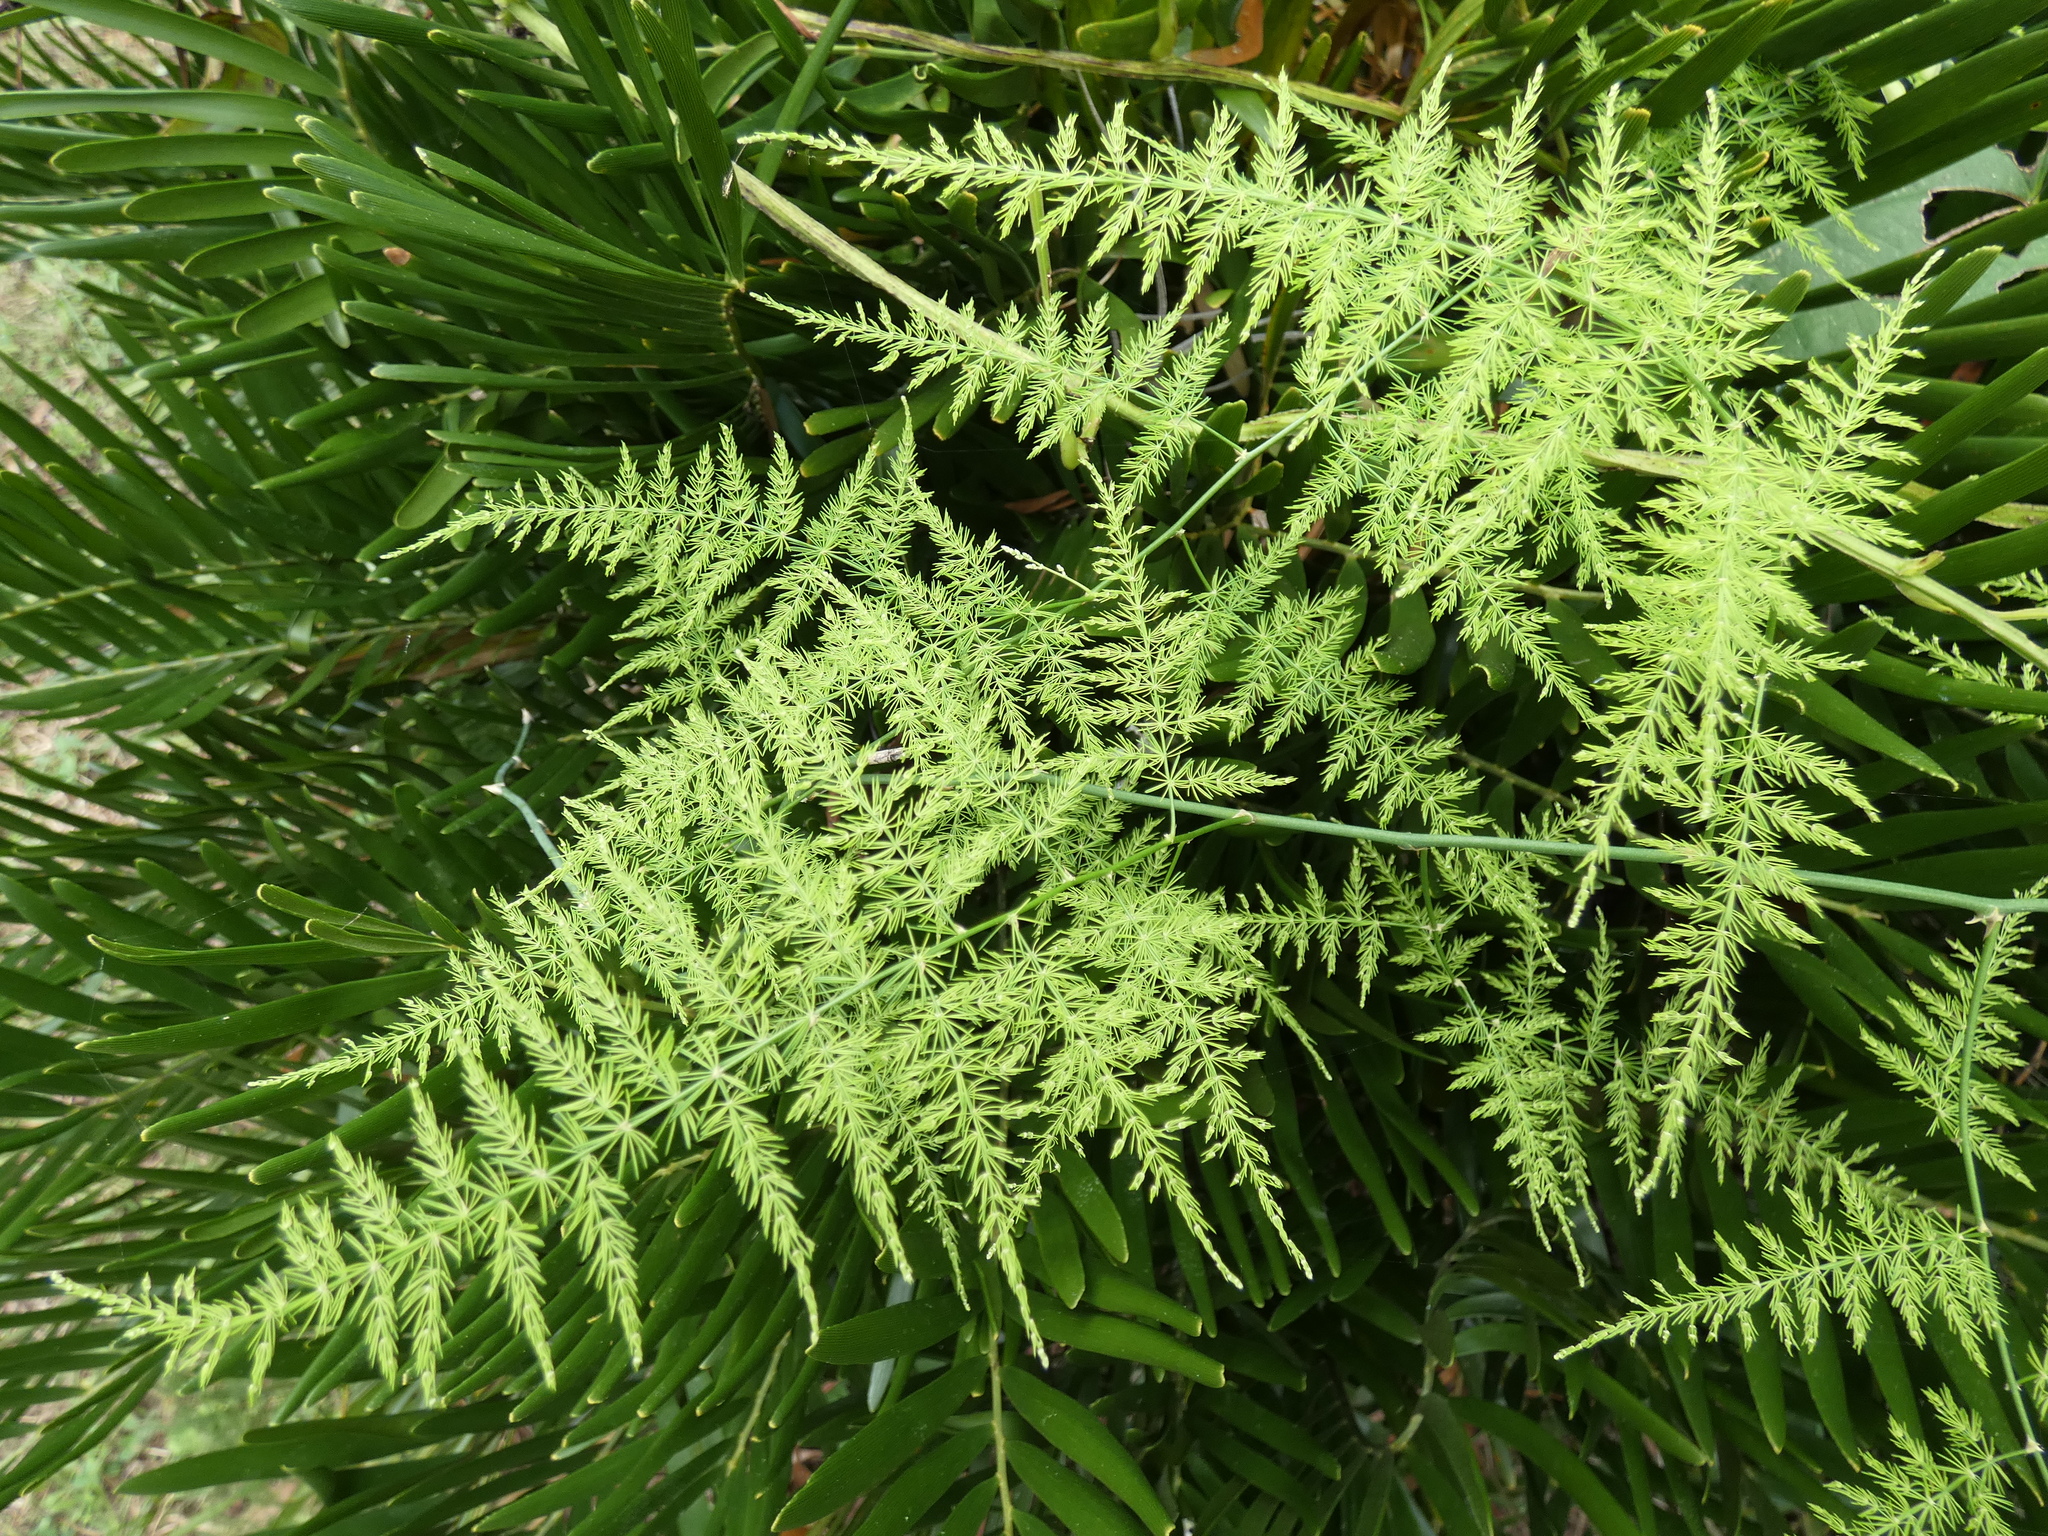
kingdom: Plantae
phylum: Tracheophyta
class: Liliopsida
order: Asparagales
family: Asparagaceae
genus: Asparagus
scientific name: Asparagus setaceus
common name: Common asparagus fern
